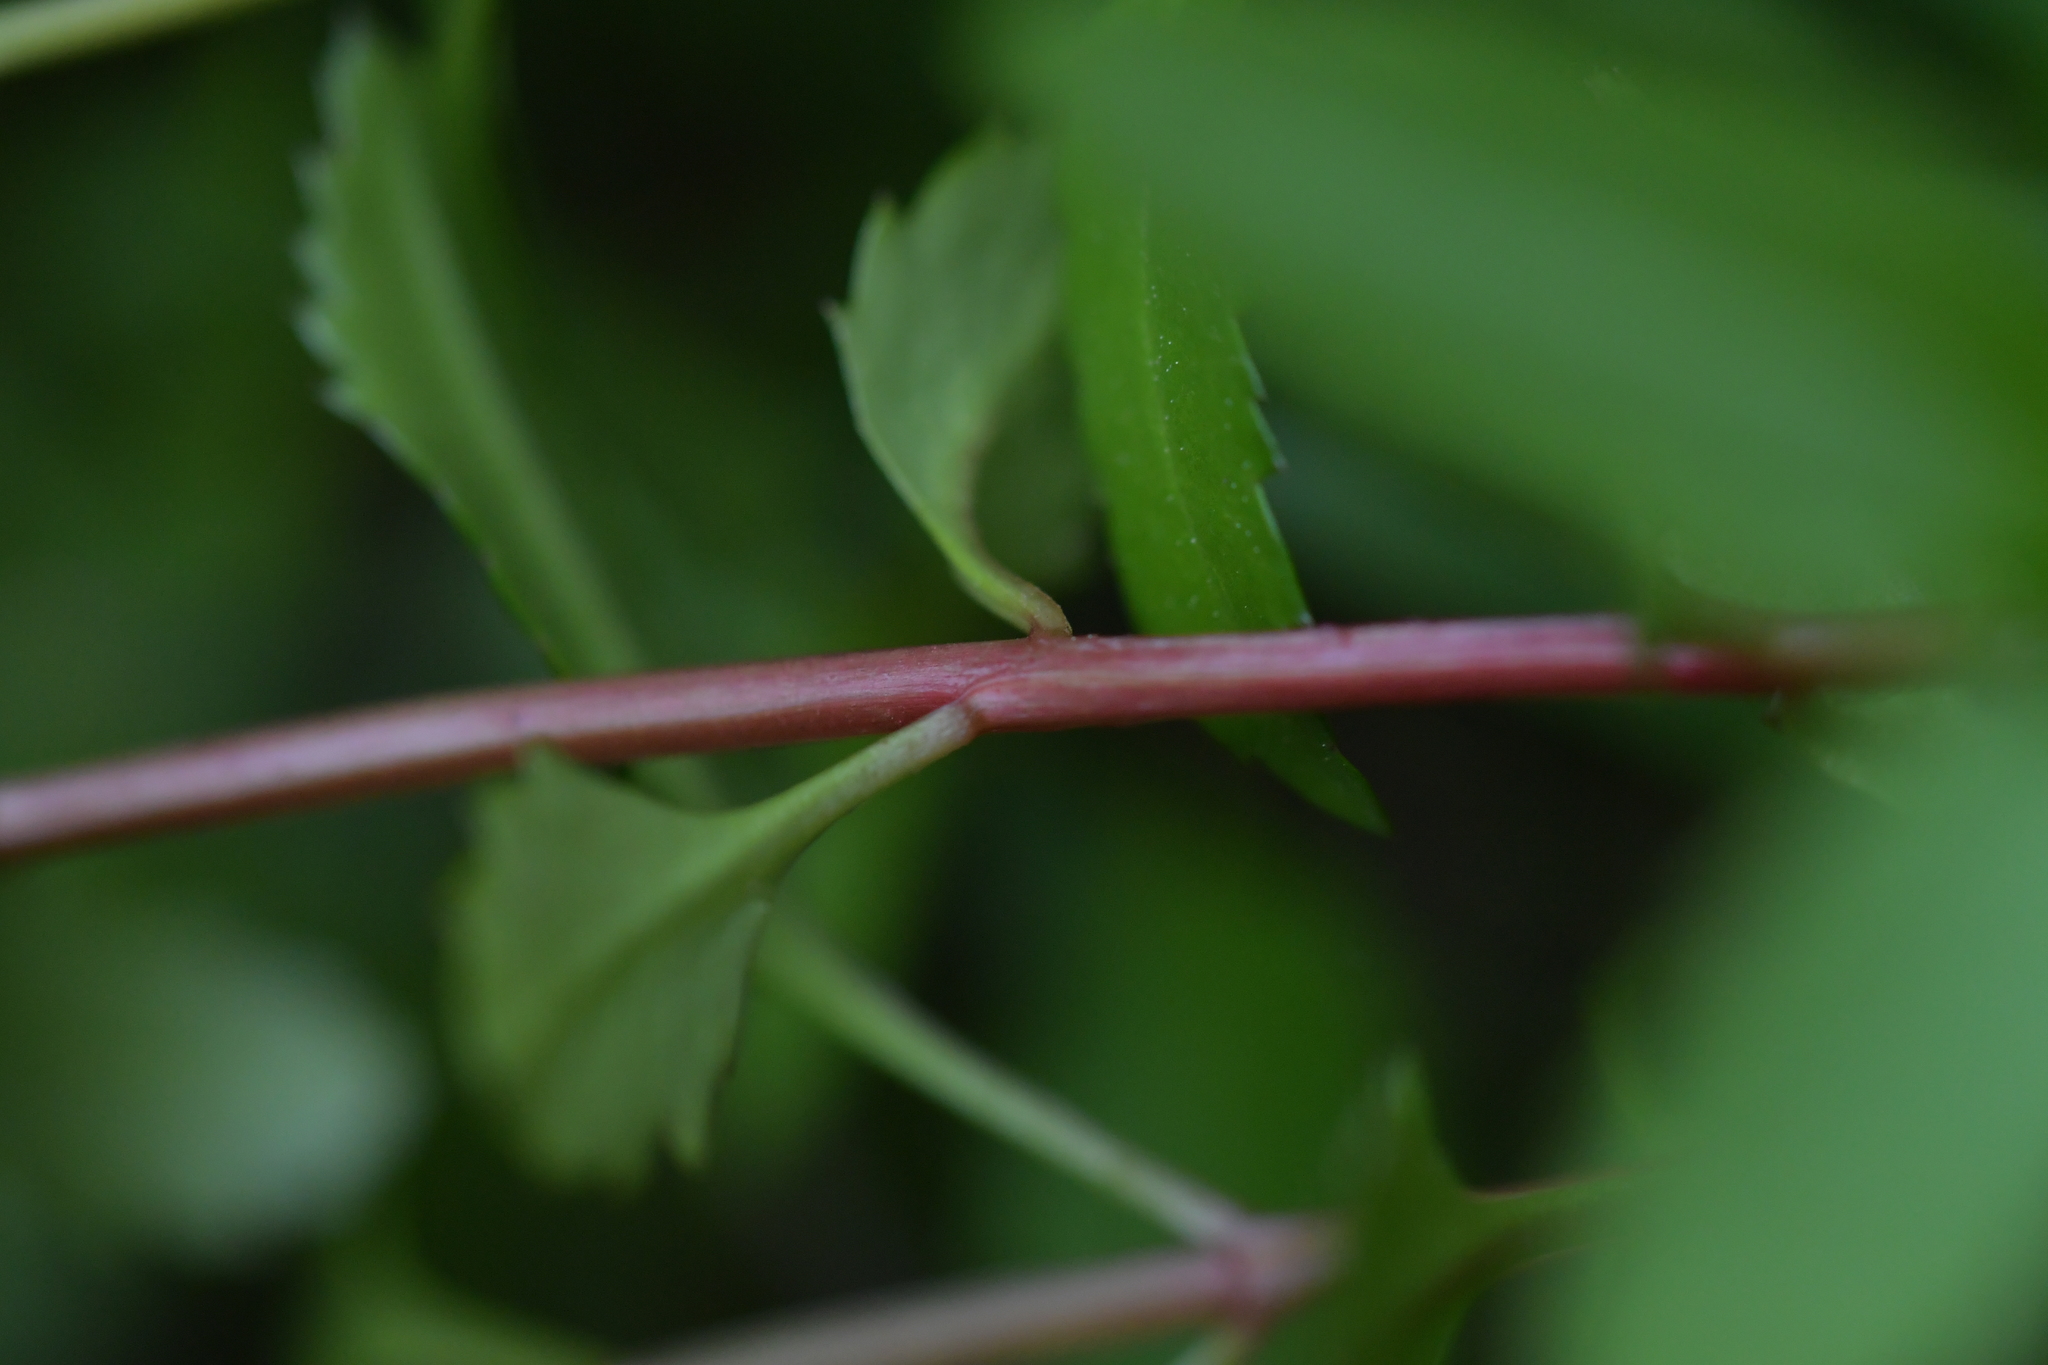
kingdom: Plantae
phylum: Tracheophyta
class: Magnoliopsida
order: Saxifragales
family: Haloragaceae
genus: Haloragis
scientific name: Haloragis erecta
